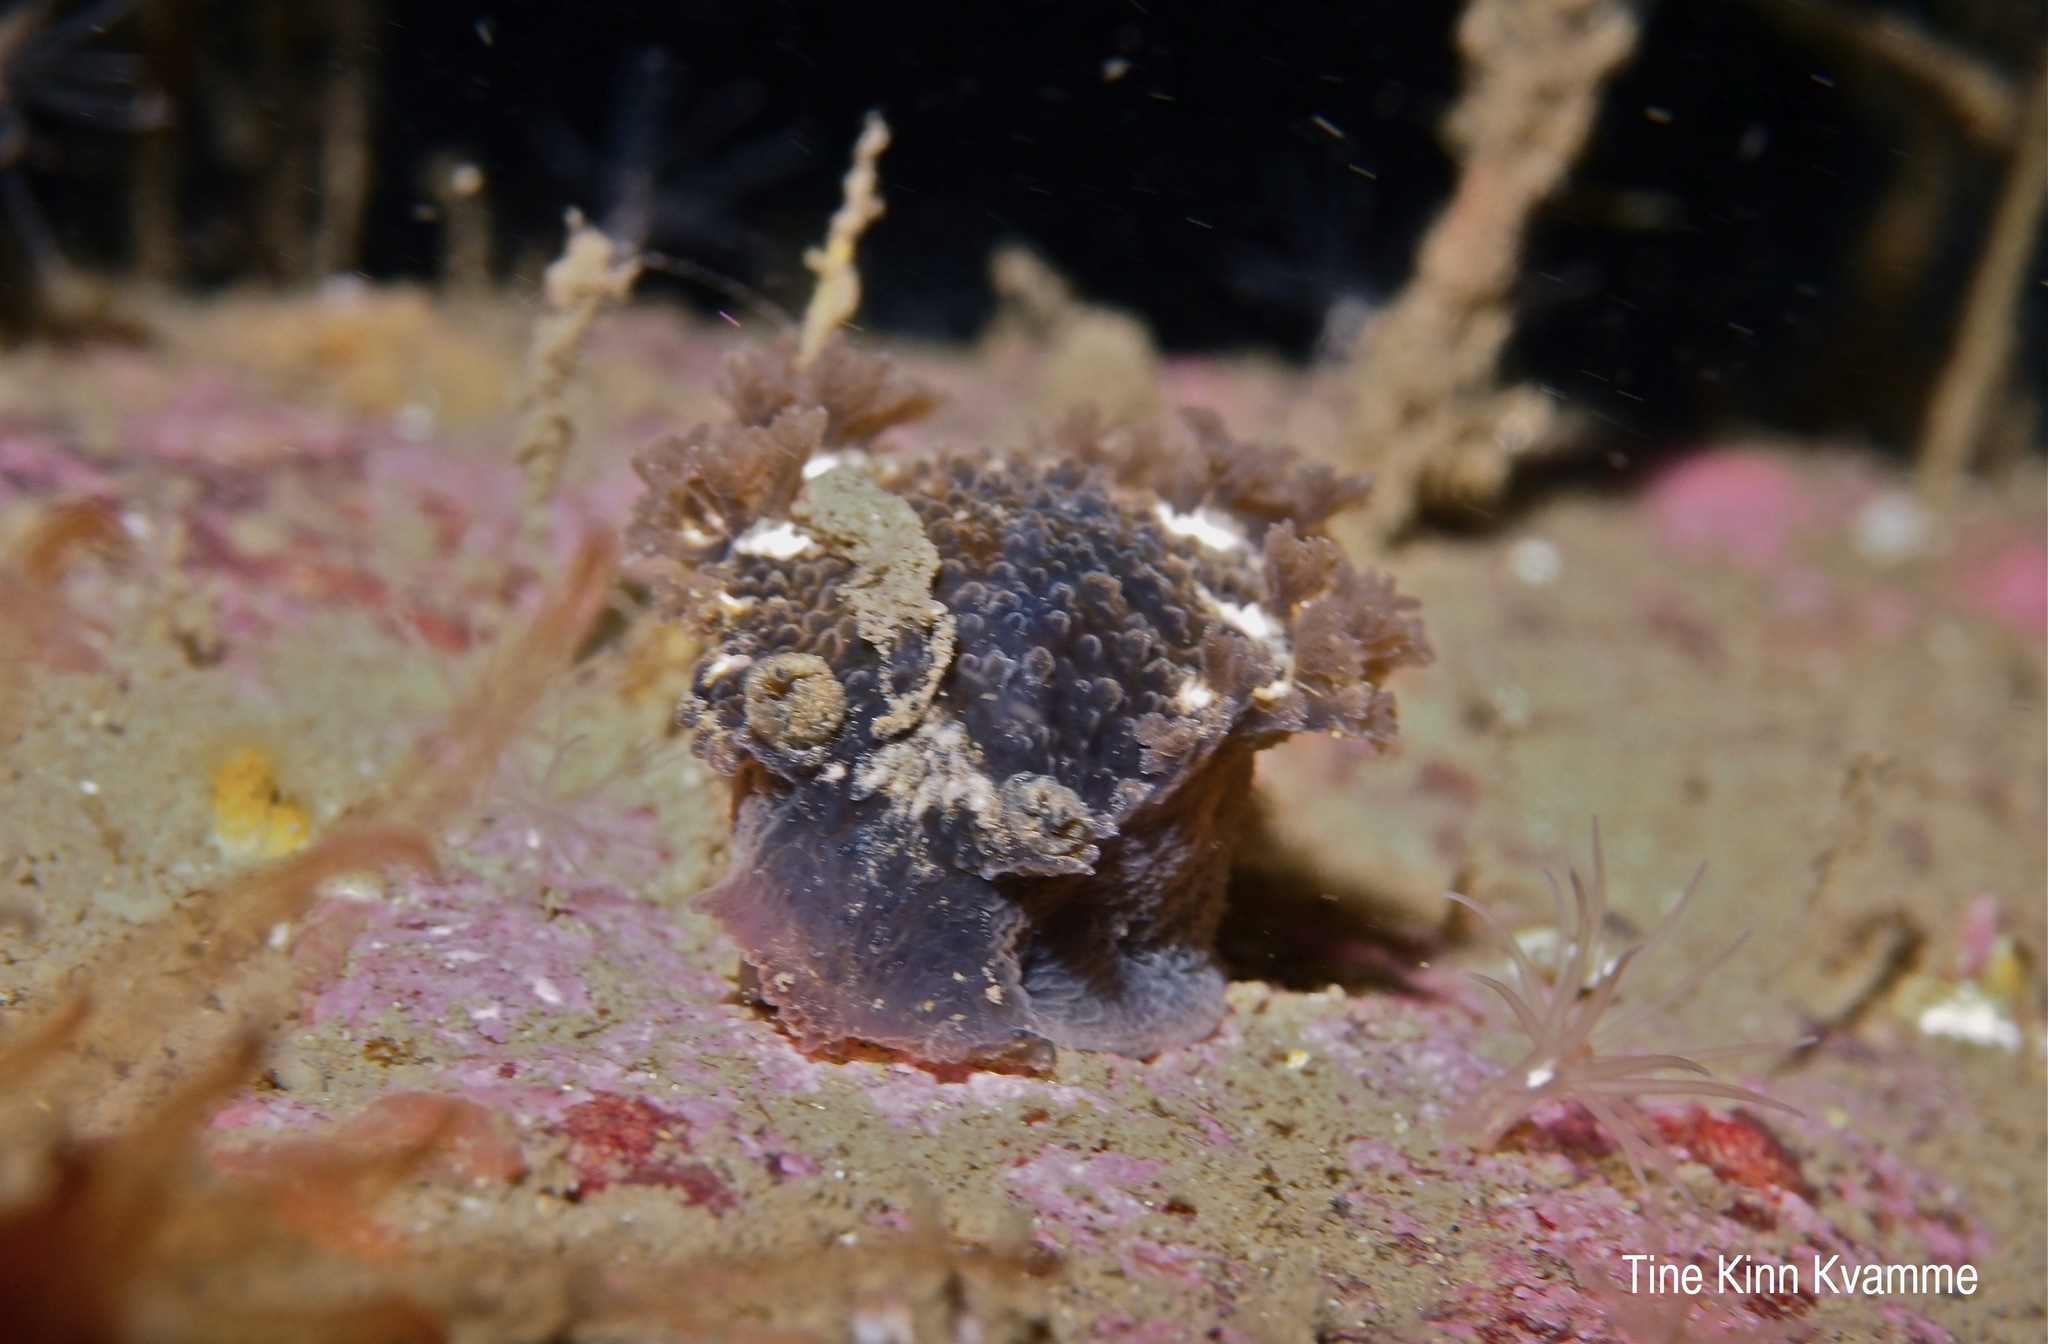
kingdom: Animalia
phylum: Mollusca
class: Gastropoda
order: Nudibranchia
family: Tritoniidae
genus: Tritonia
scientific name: Tritonia hombergii
